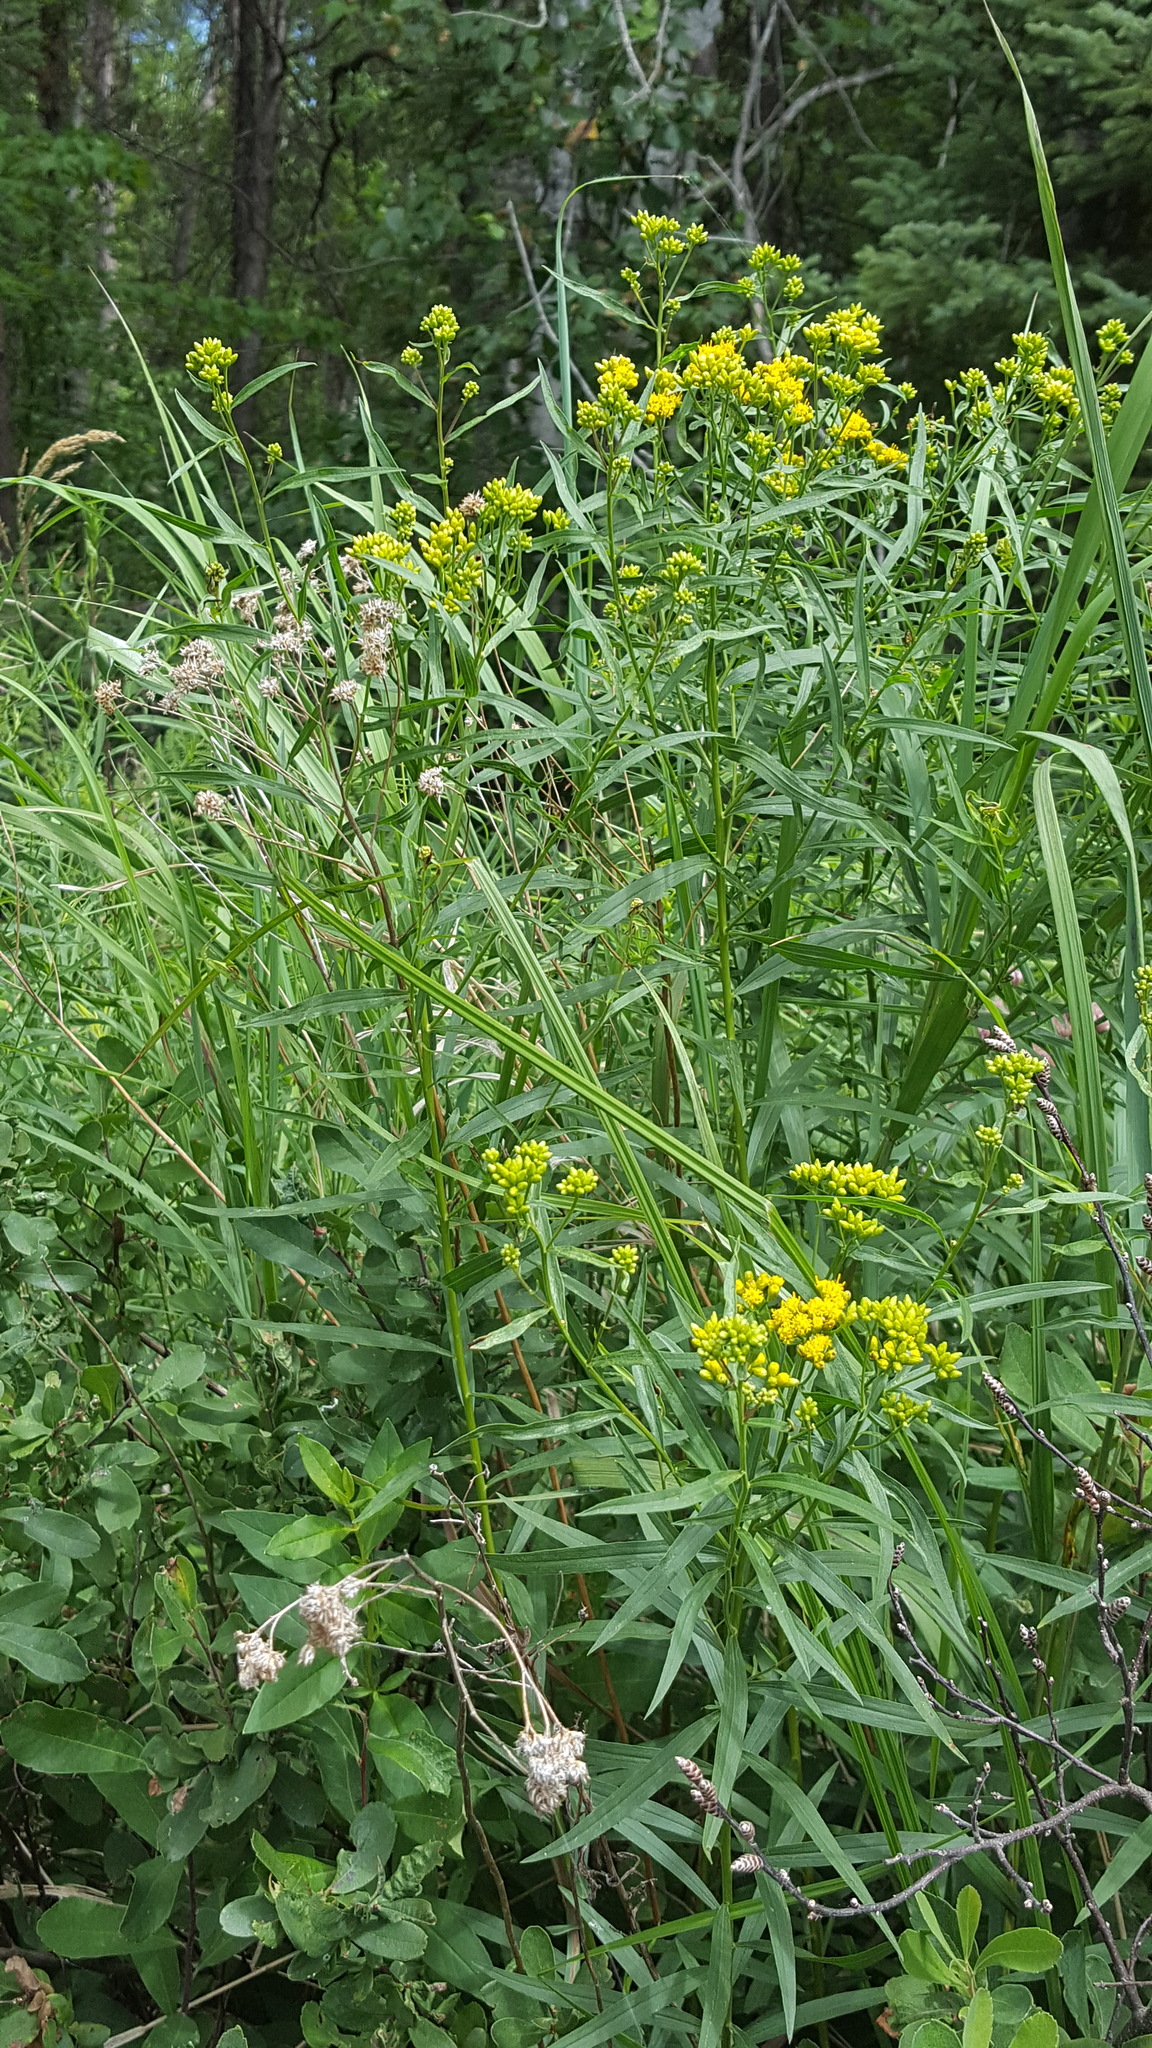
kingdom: Plantae
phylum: Tracheophyta
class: Magnoliopsida
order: Asterales
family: Asteraceae
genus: Euthamia
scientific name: Euthamia graminifolia
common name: Common goldentop
